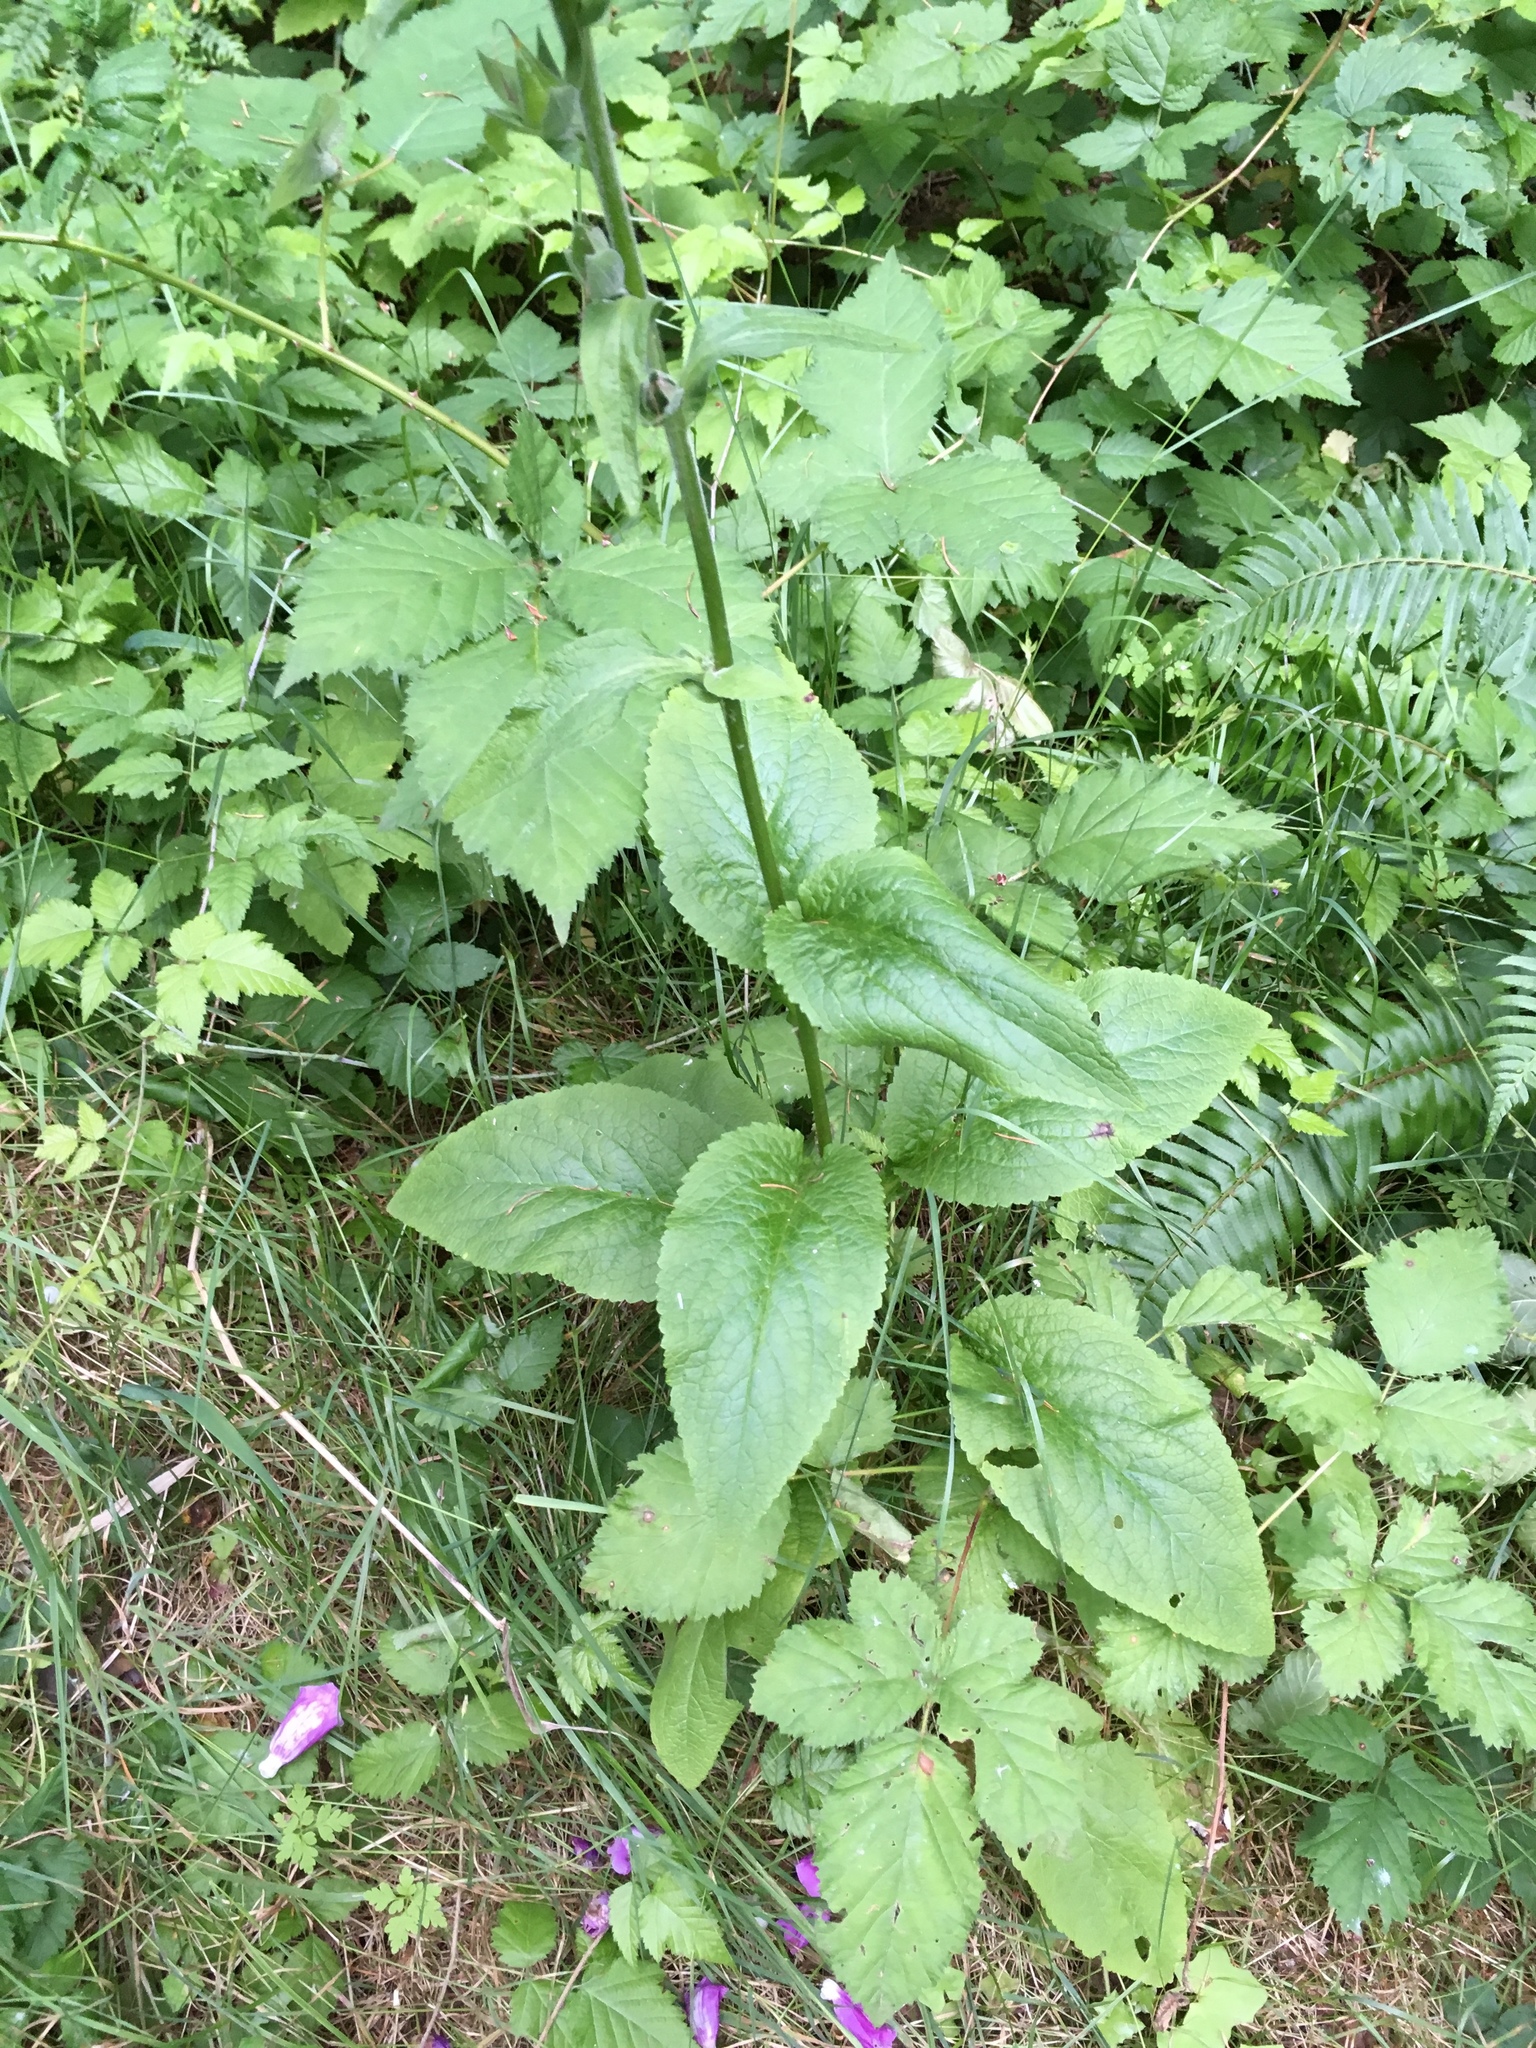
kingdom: Plantae
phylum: Tracheophyta
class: Magnoliopsida
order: Lamiales
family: Plantaginaceae
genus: Digitalis
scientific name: Digitalis purpurea
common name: Foxglove
